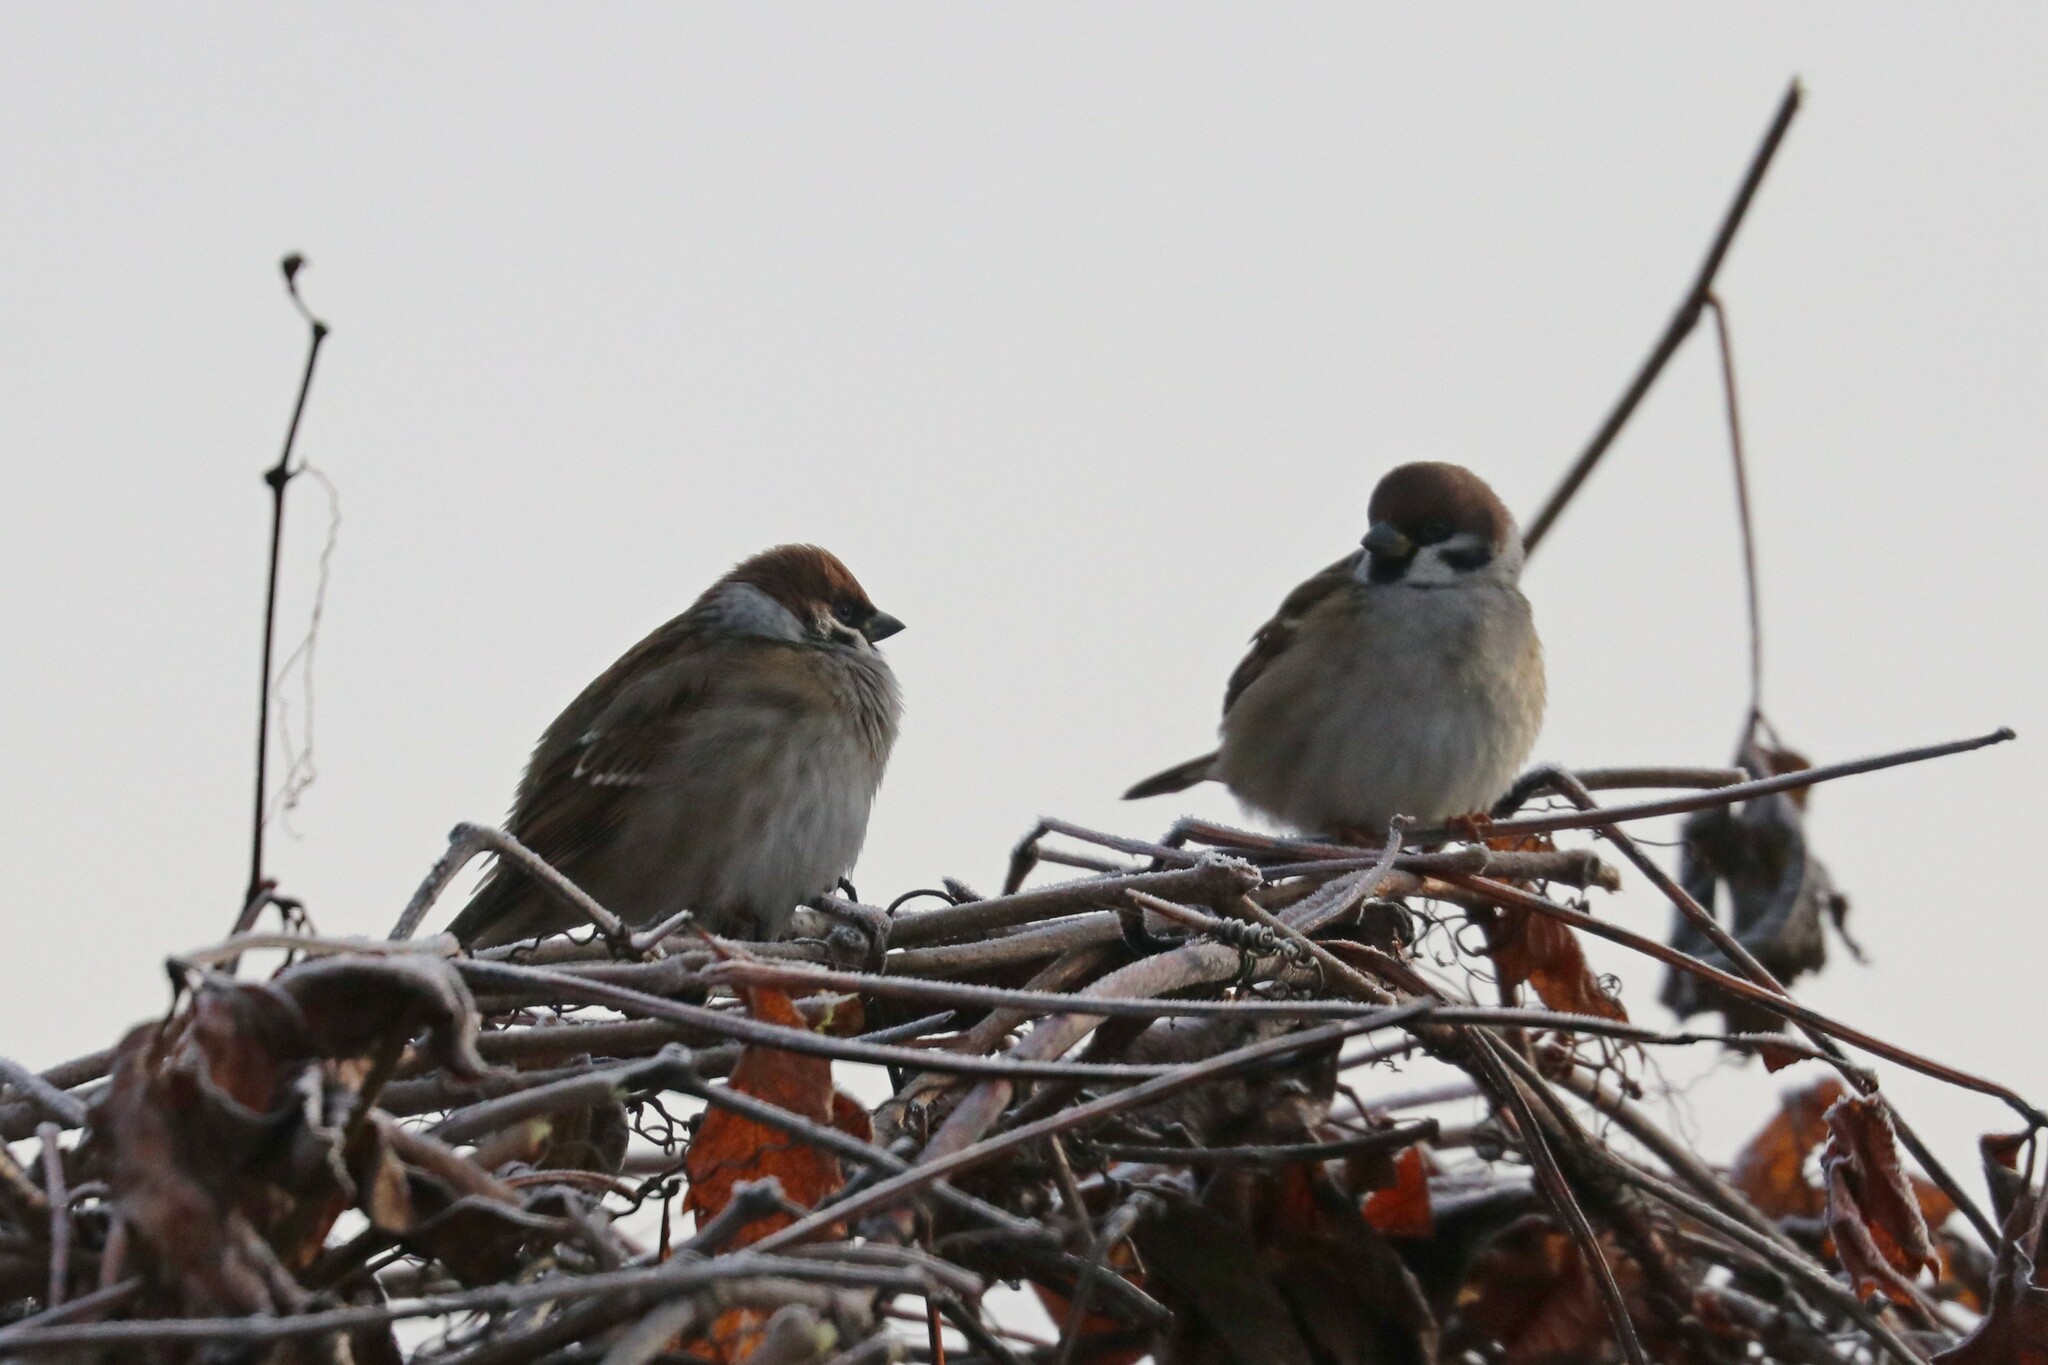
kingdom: Animalia
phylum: Chordata
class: Aves
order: Passeriformes
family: Passeridae
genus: Passer
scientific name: Passer montanus
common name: Eurasian tree sparrow
